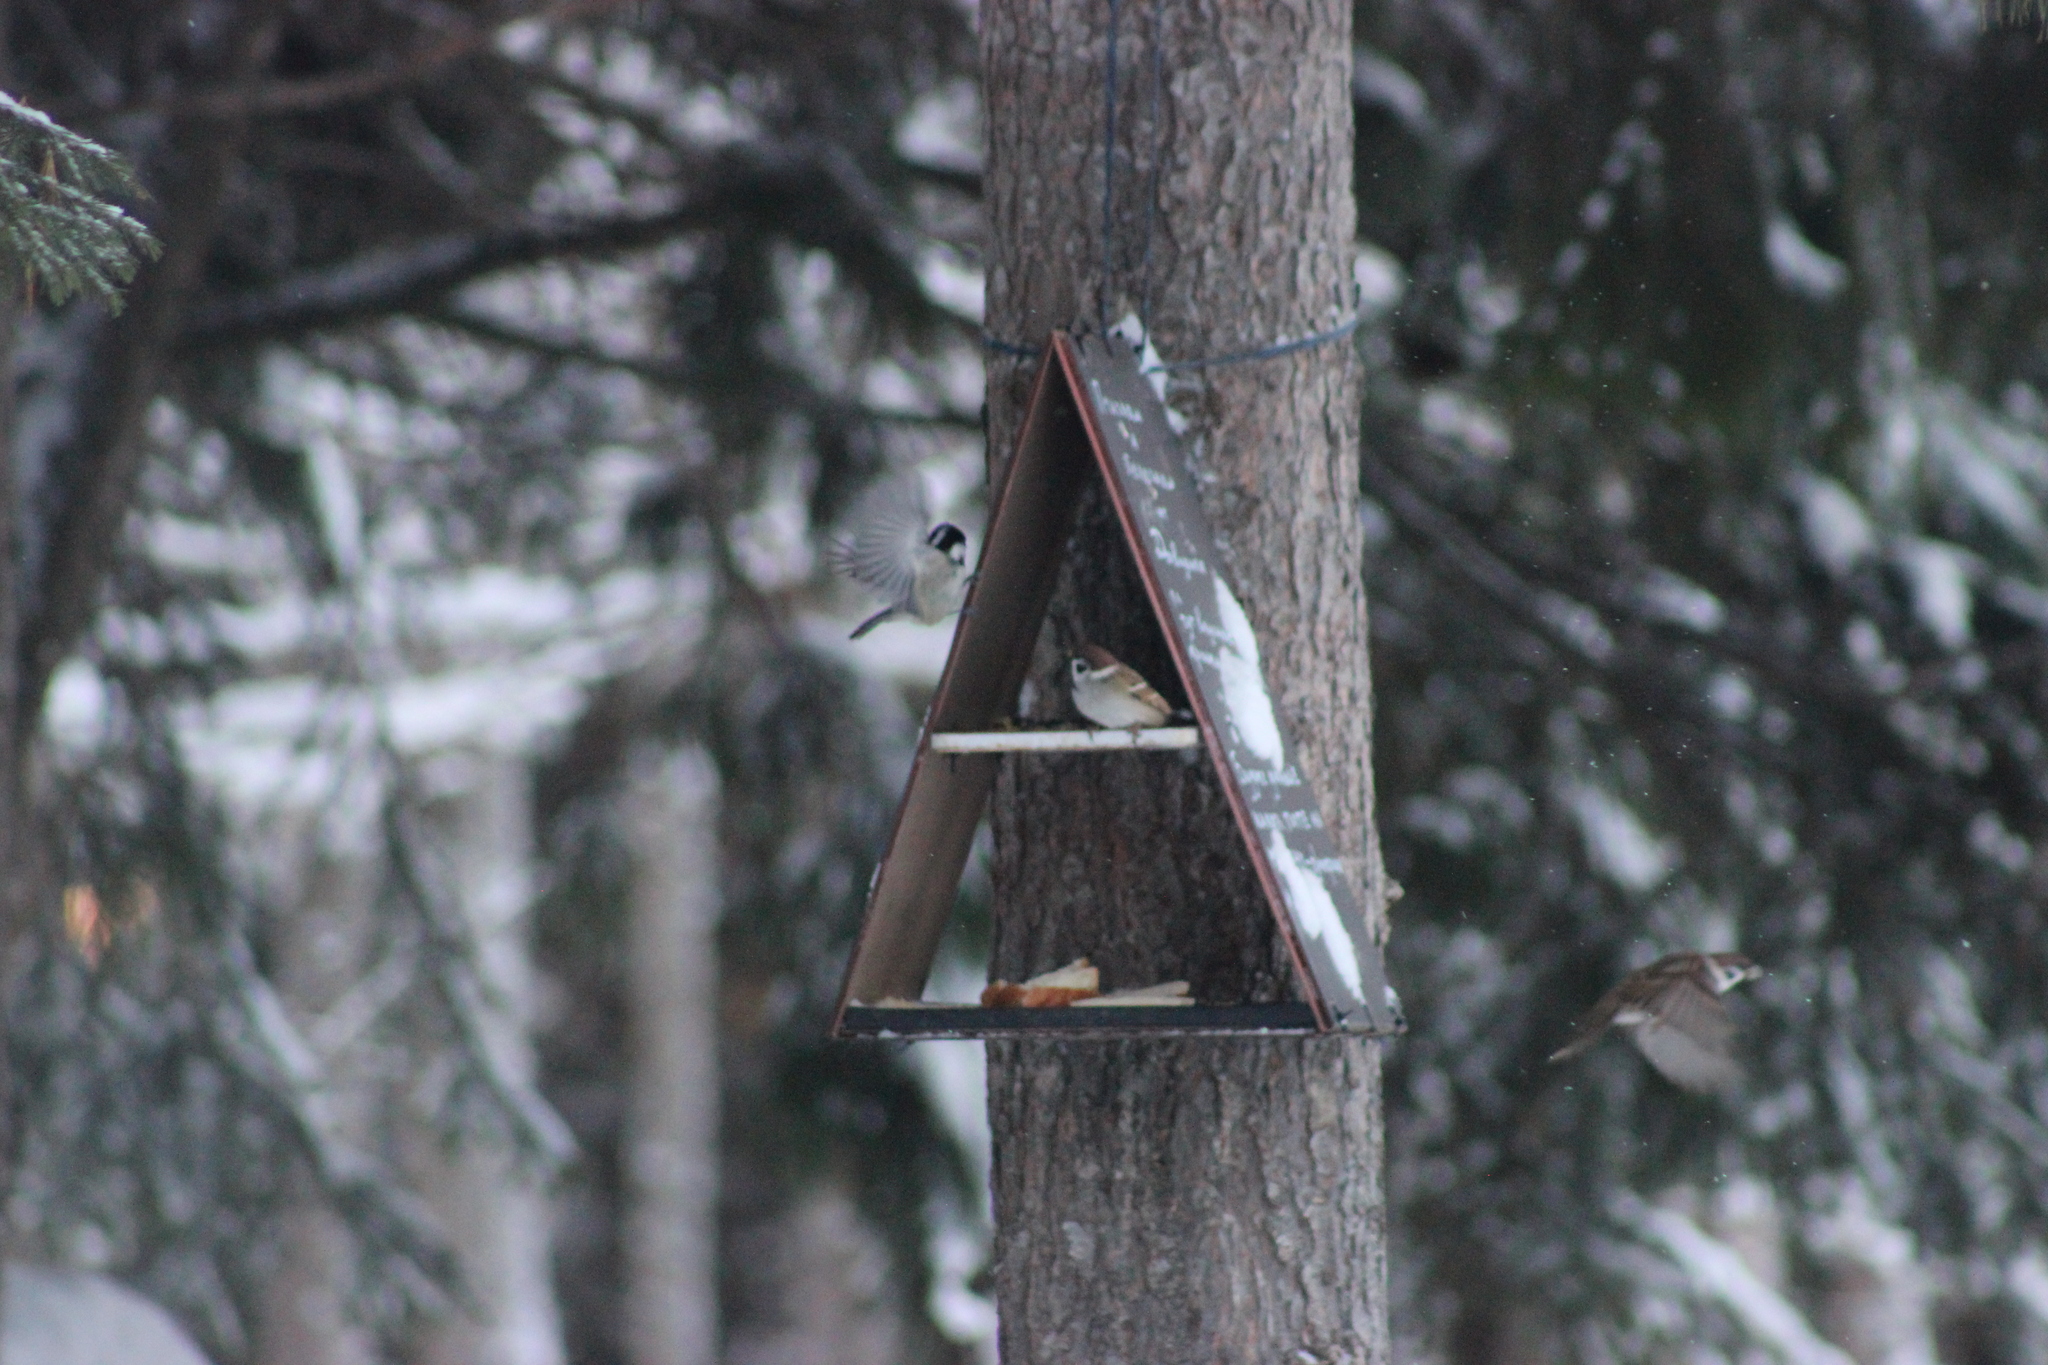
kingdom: Animalia
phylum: Chordata
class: Aves
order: Passeriformes
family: Passeridae
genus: Passer
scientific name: Passer montanus
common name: Eurasian tree sparrow
